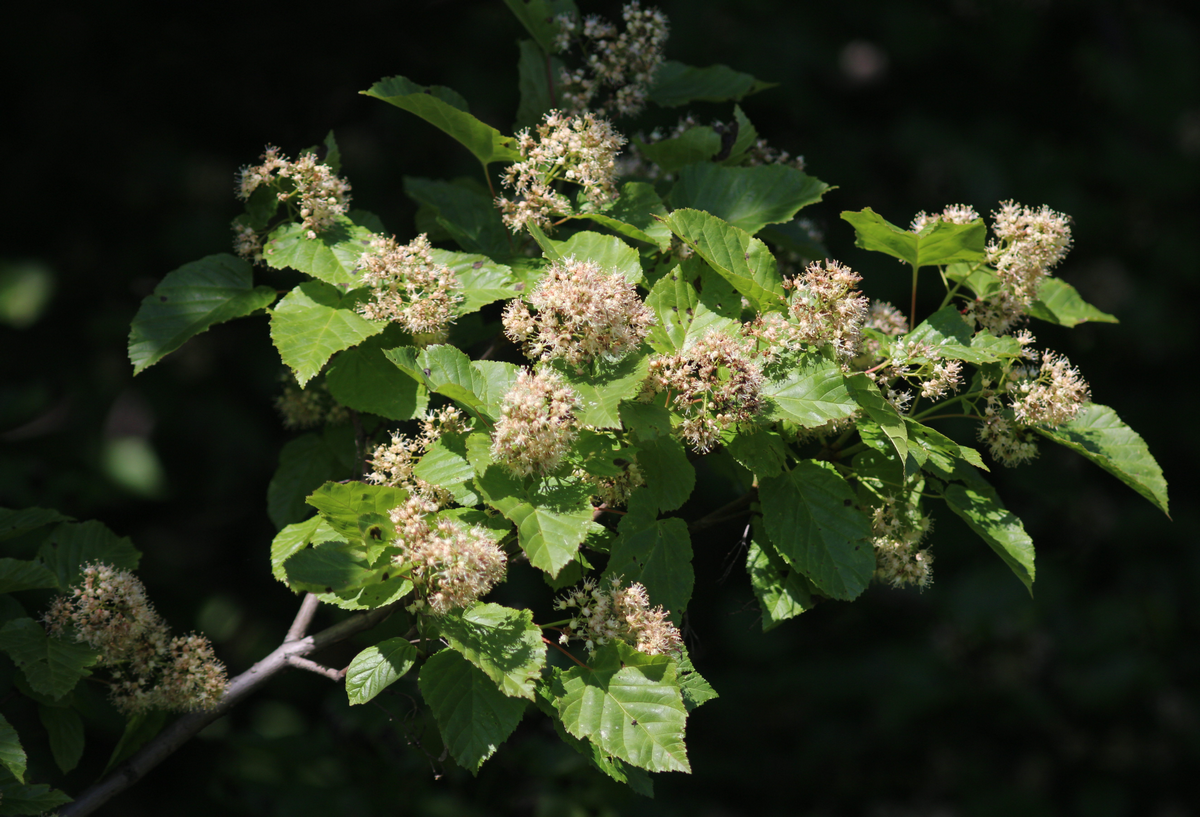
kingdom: Plantae
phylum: Tracheophyta
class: Magnoliopsida
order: Sapindales
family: Sapindaceae
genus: Acer
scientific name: Acer tataricum
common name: Tartar maple
